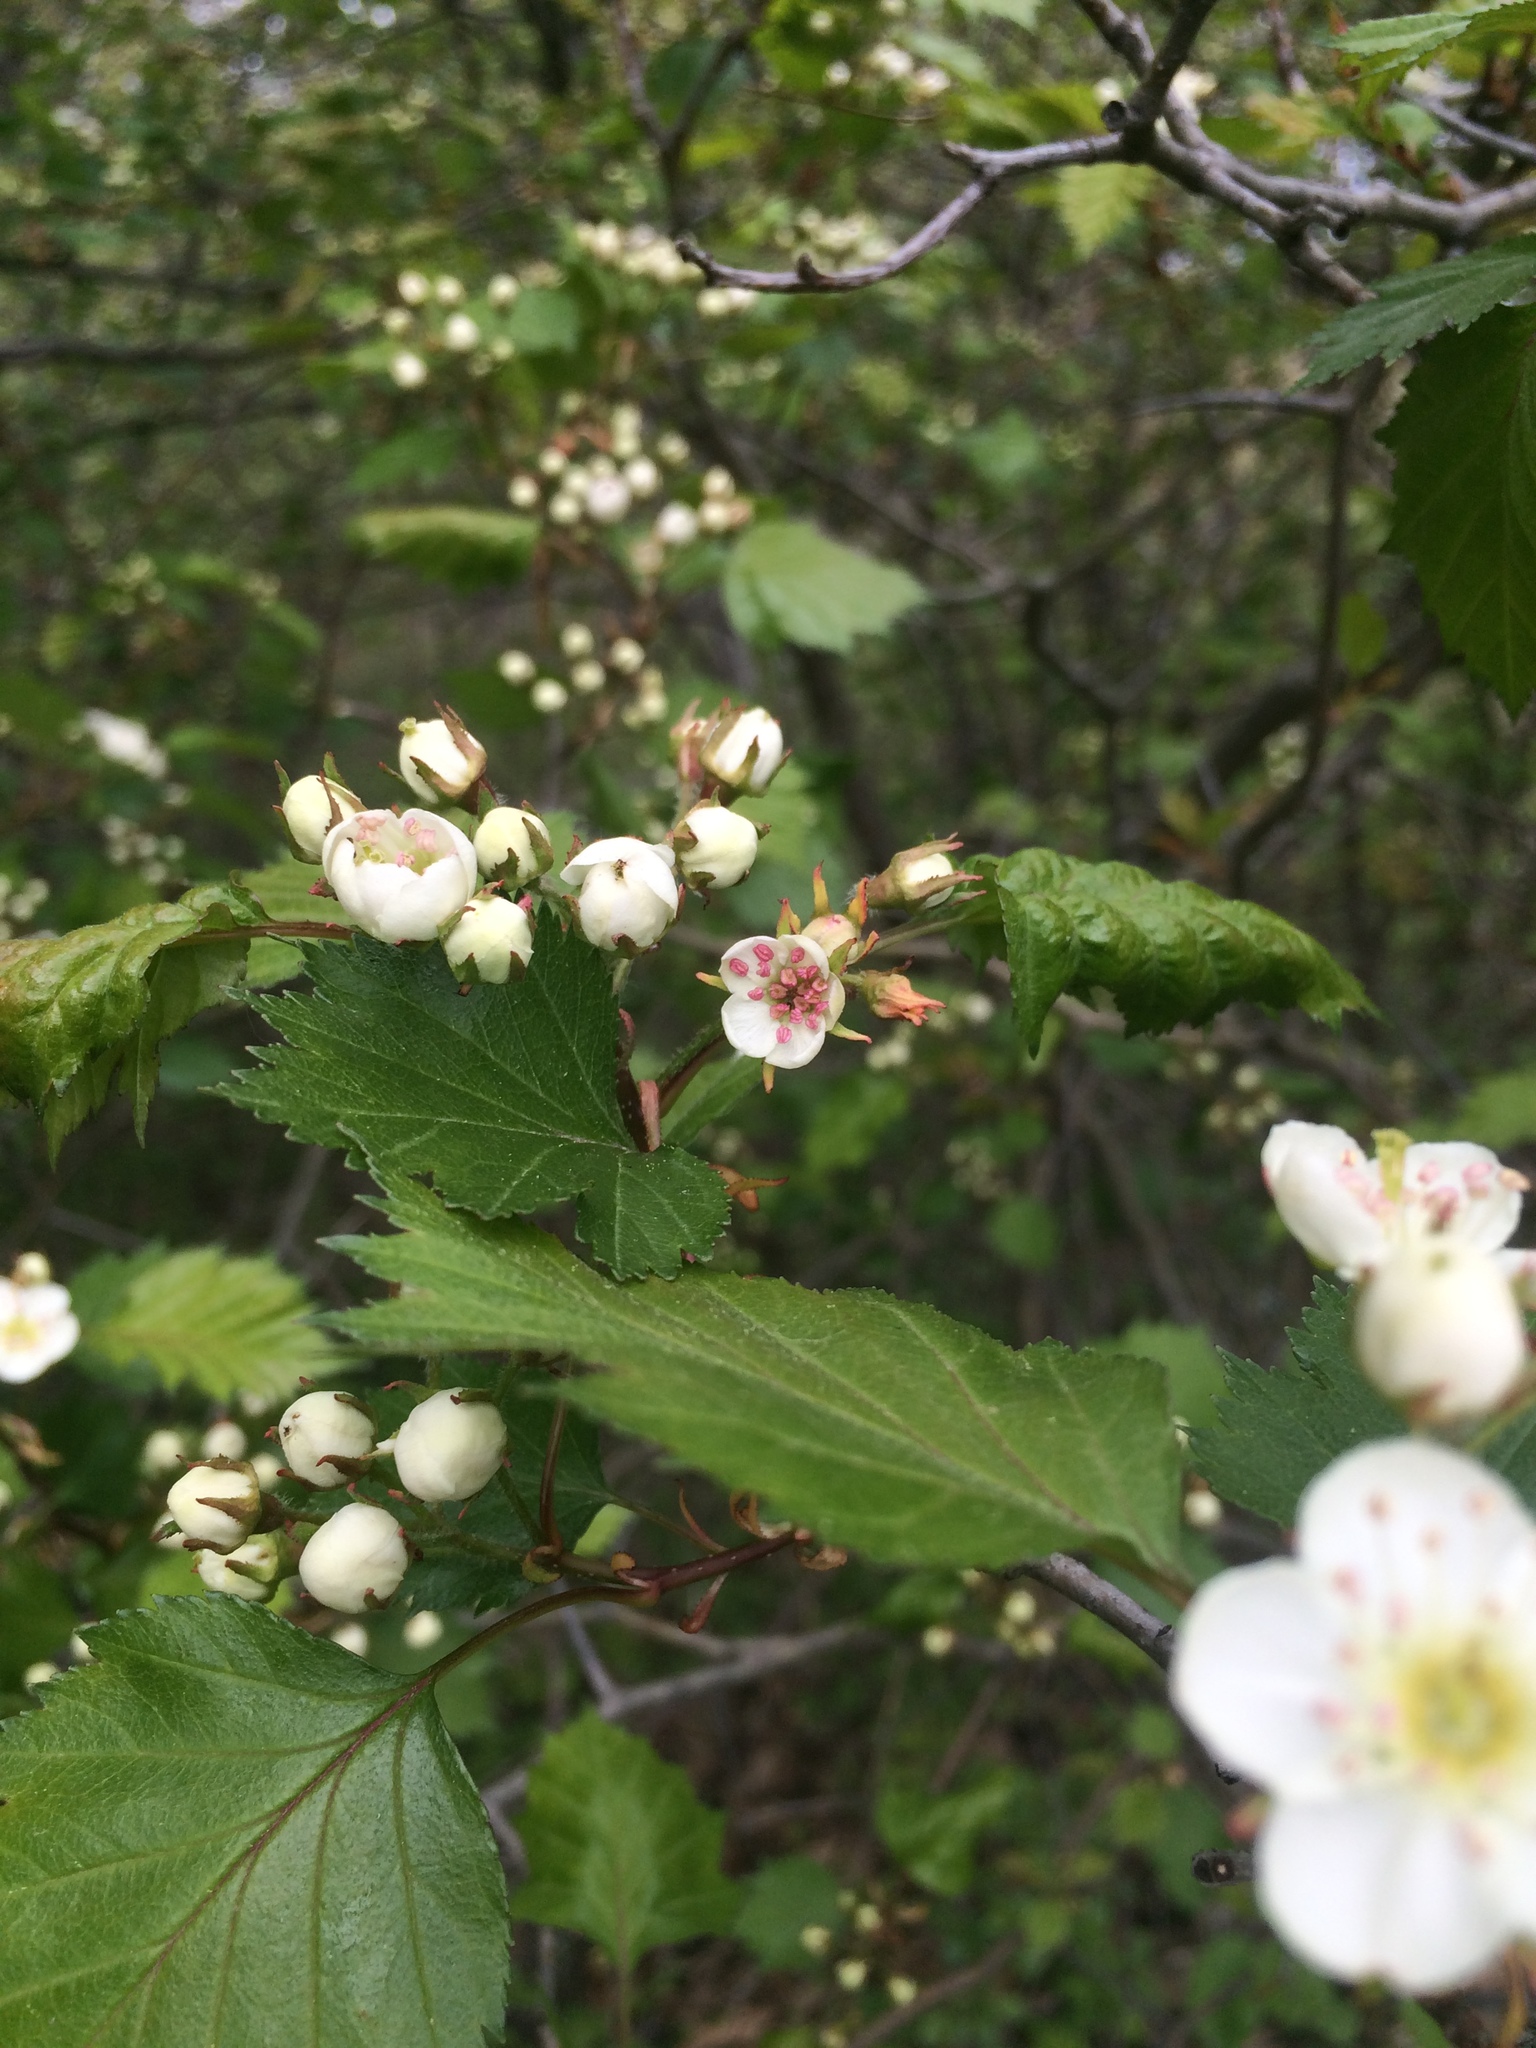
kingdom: Plantae
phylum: Tracheophyta
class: Magnoliopsida
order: Rosales
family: Rosaceae
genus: Crataegus
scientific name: Crataegus flabellata
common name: Bosc's hawthorn
